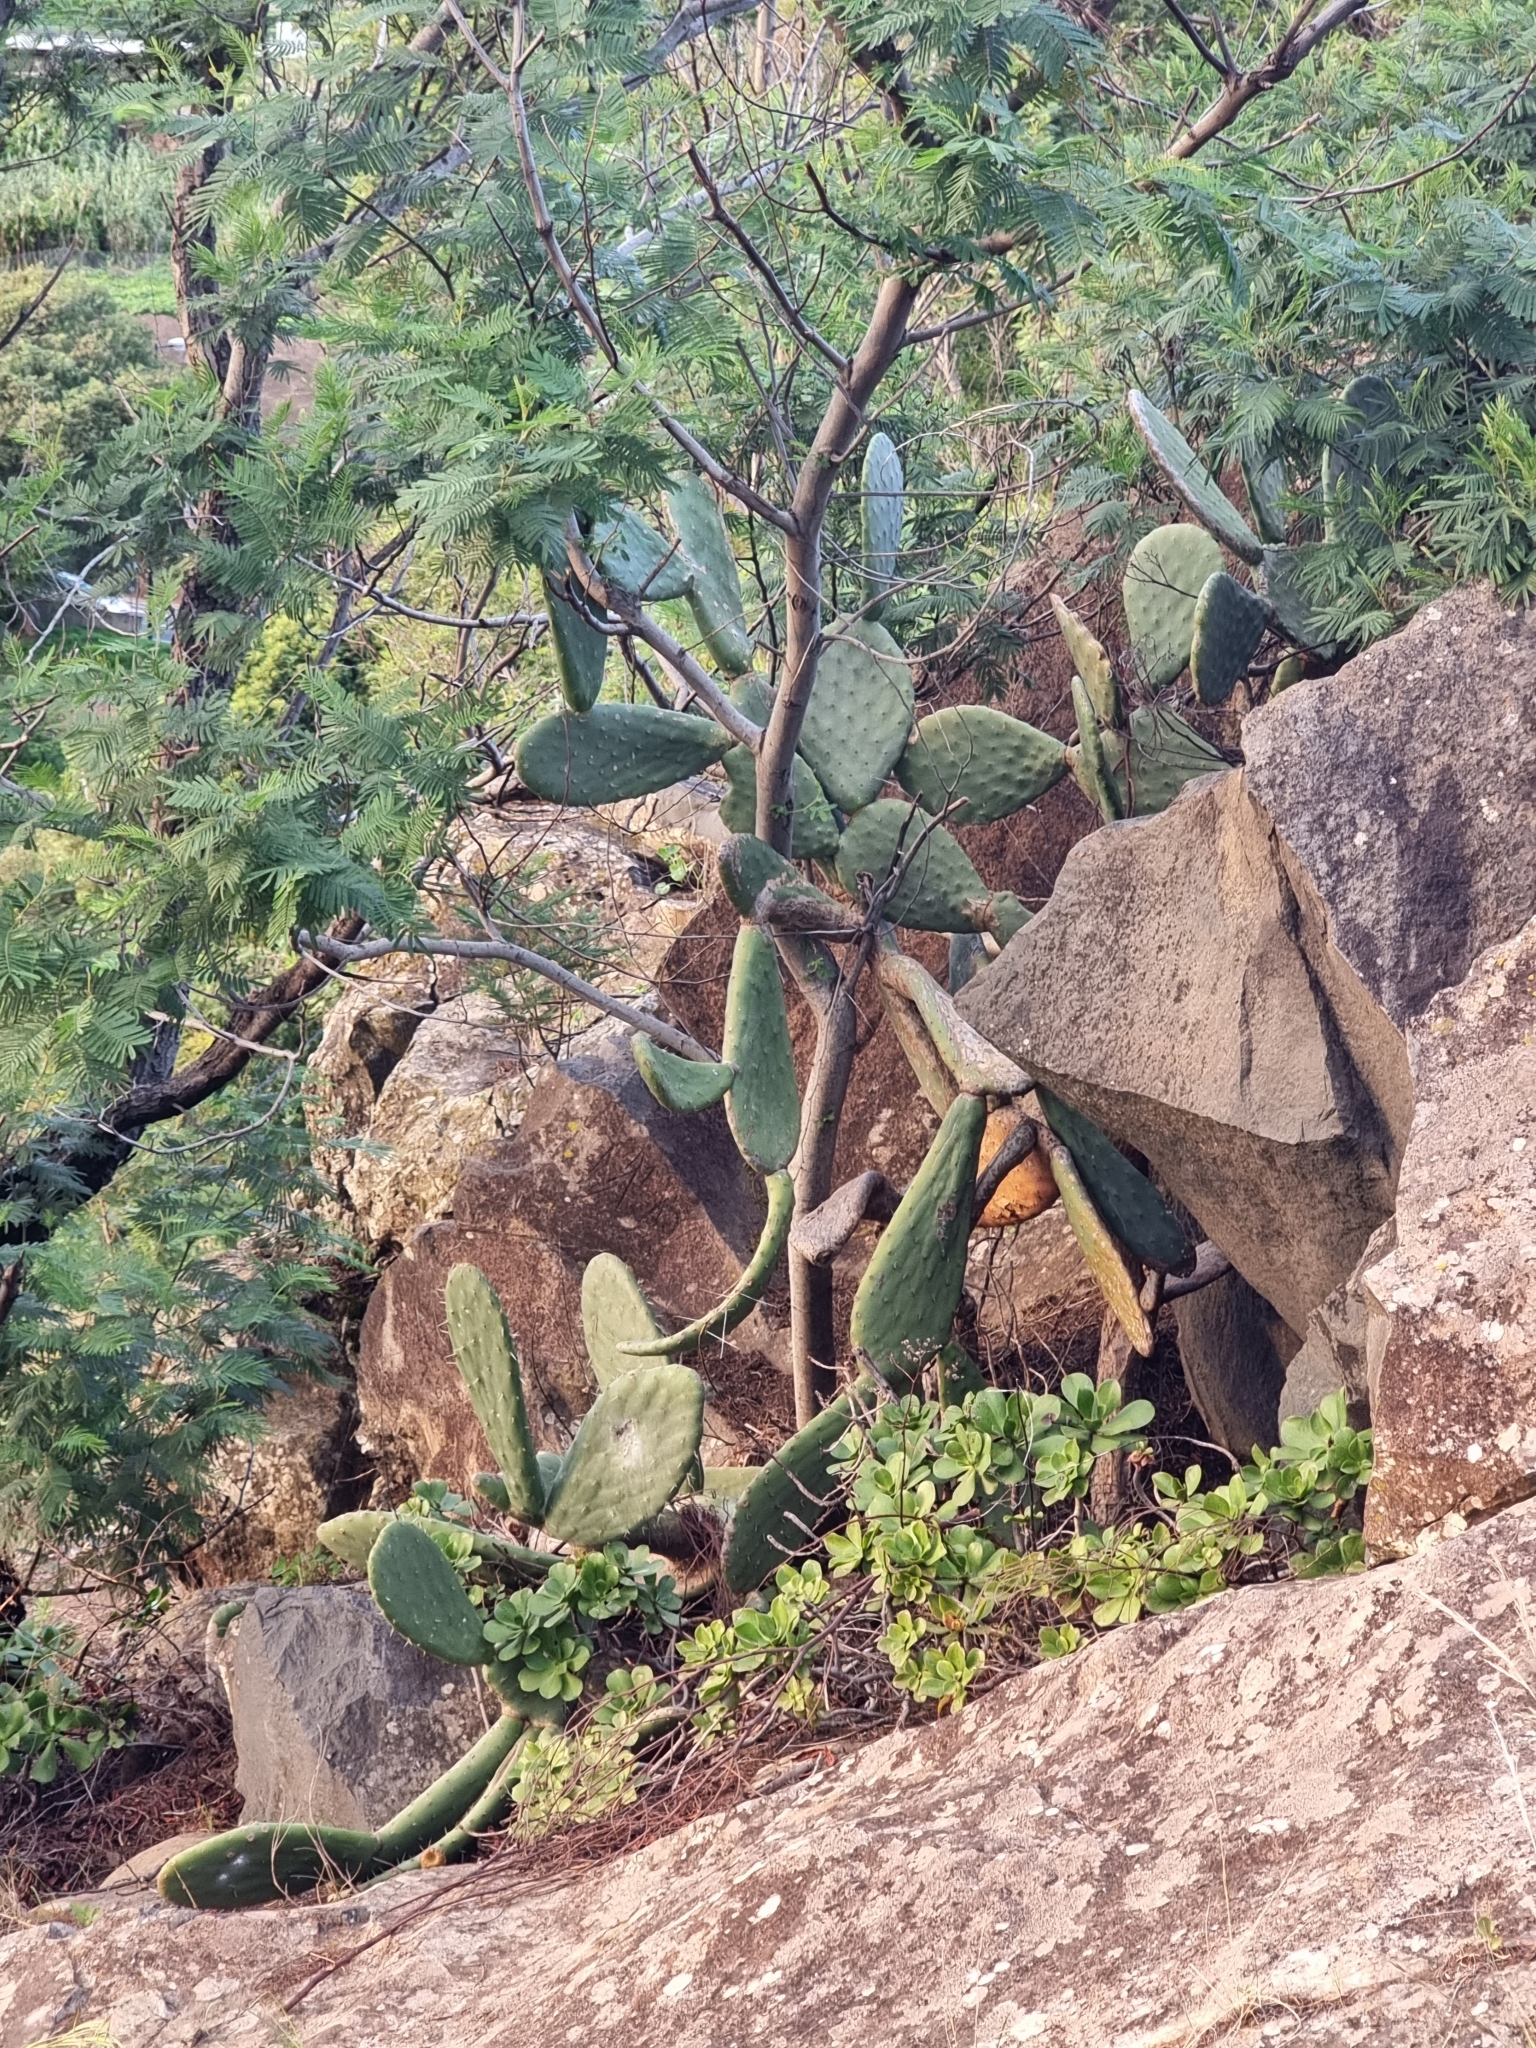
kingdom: Plantae
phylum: Tracheophyta
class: Magnoliopsida
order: Caryophyllales
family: Cactaceae
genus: Opuntia
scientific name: Opuntia ficus-indica
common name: Barbary fig
